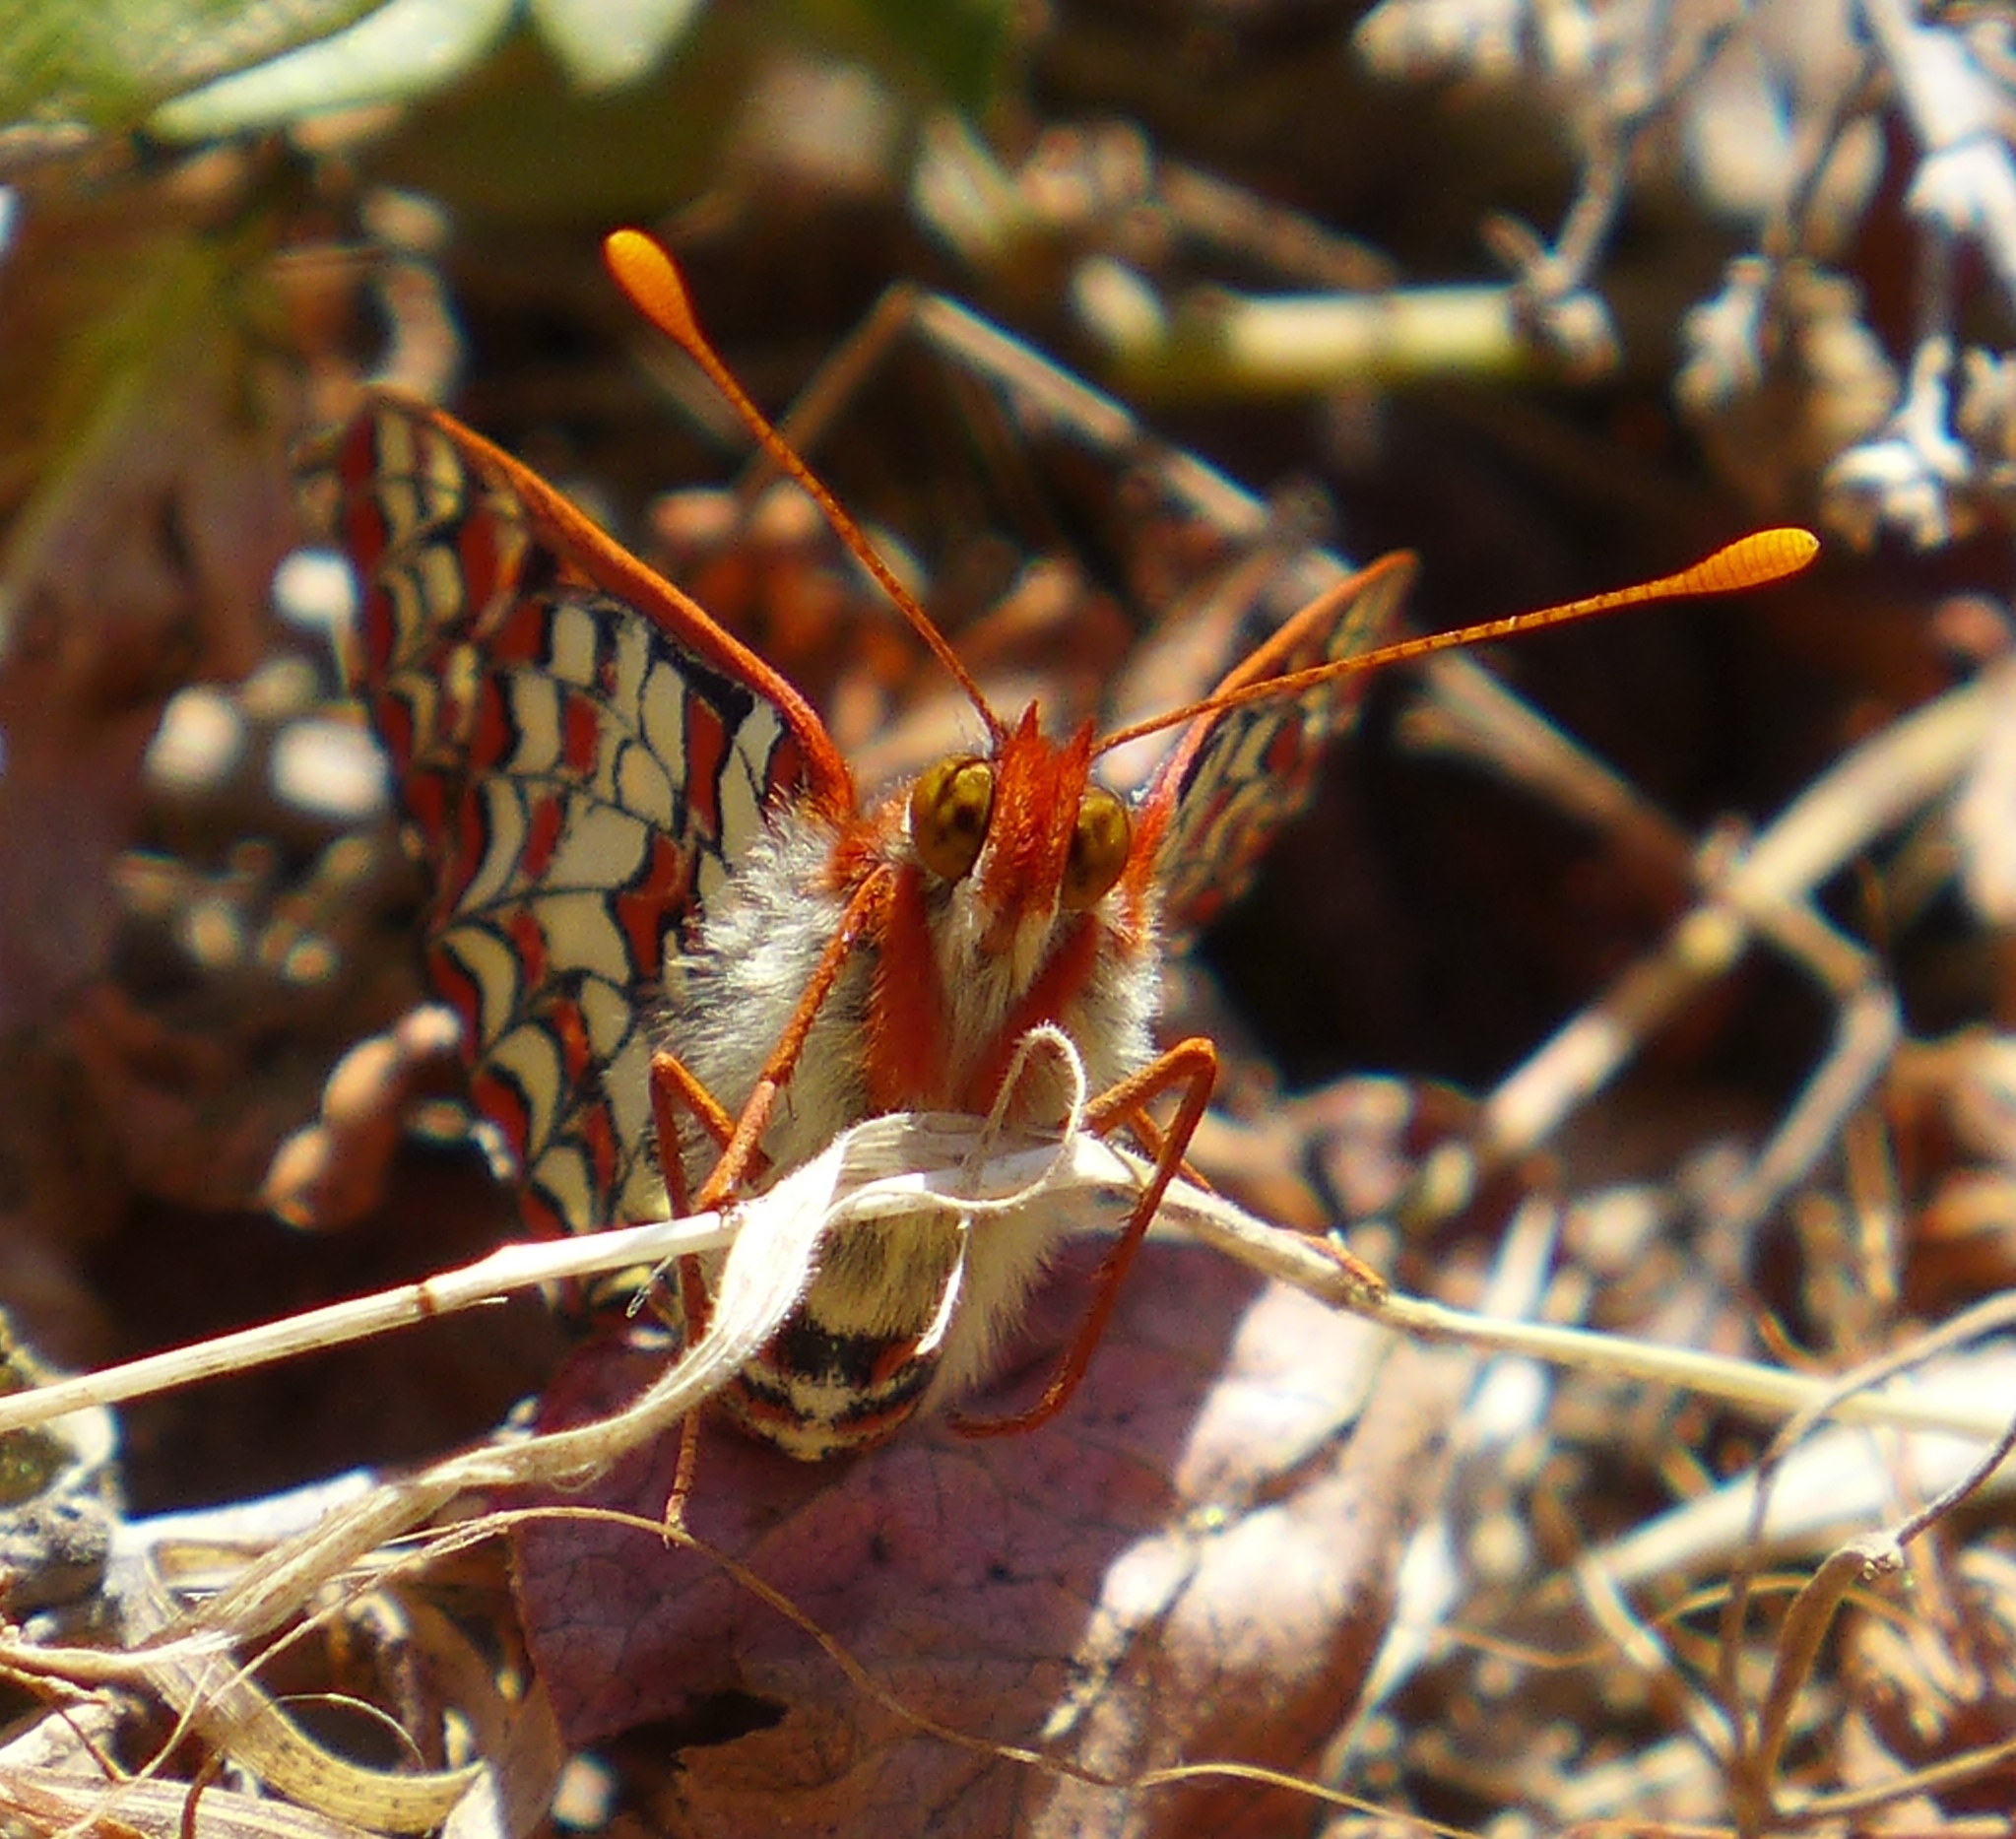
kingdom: Animalia
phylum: Arthropoda
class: Insecta
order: Lepidoptera
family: Nymphalidae
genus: Occidryas
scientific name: Occidryas chalcedona
